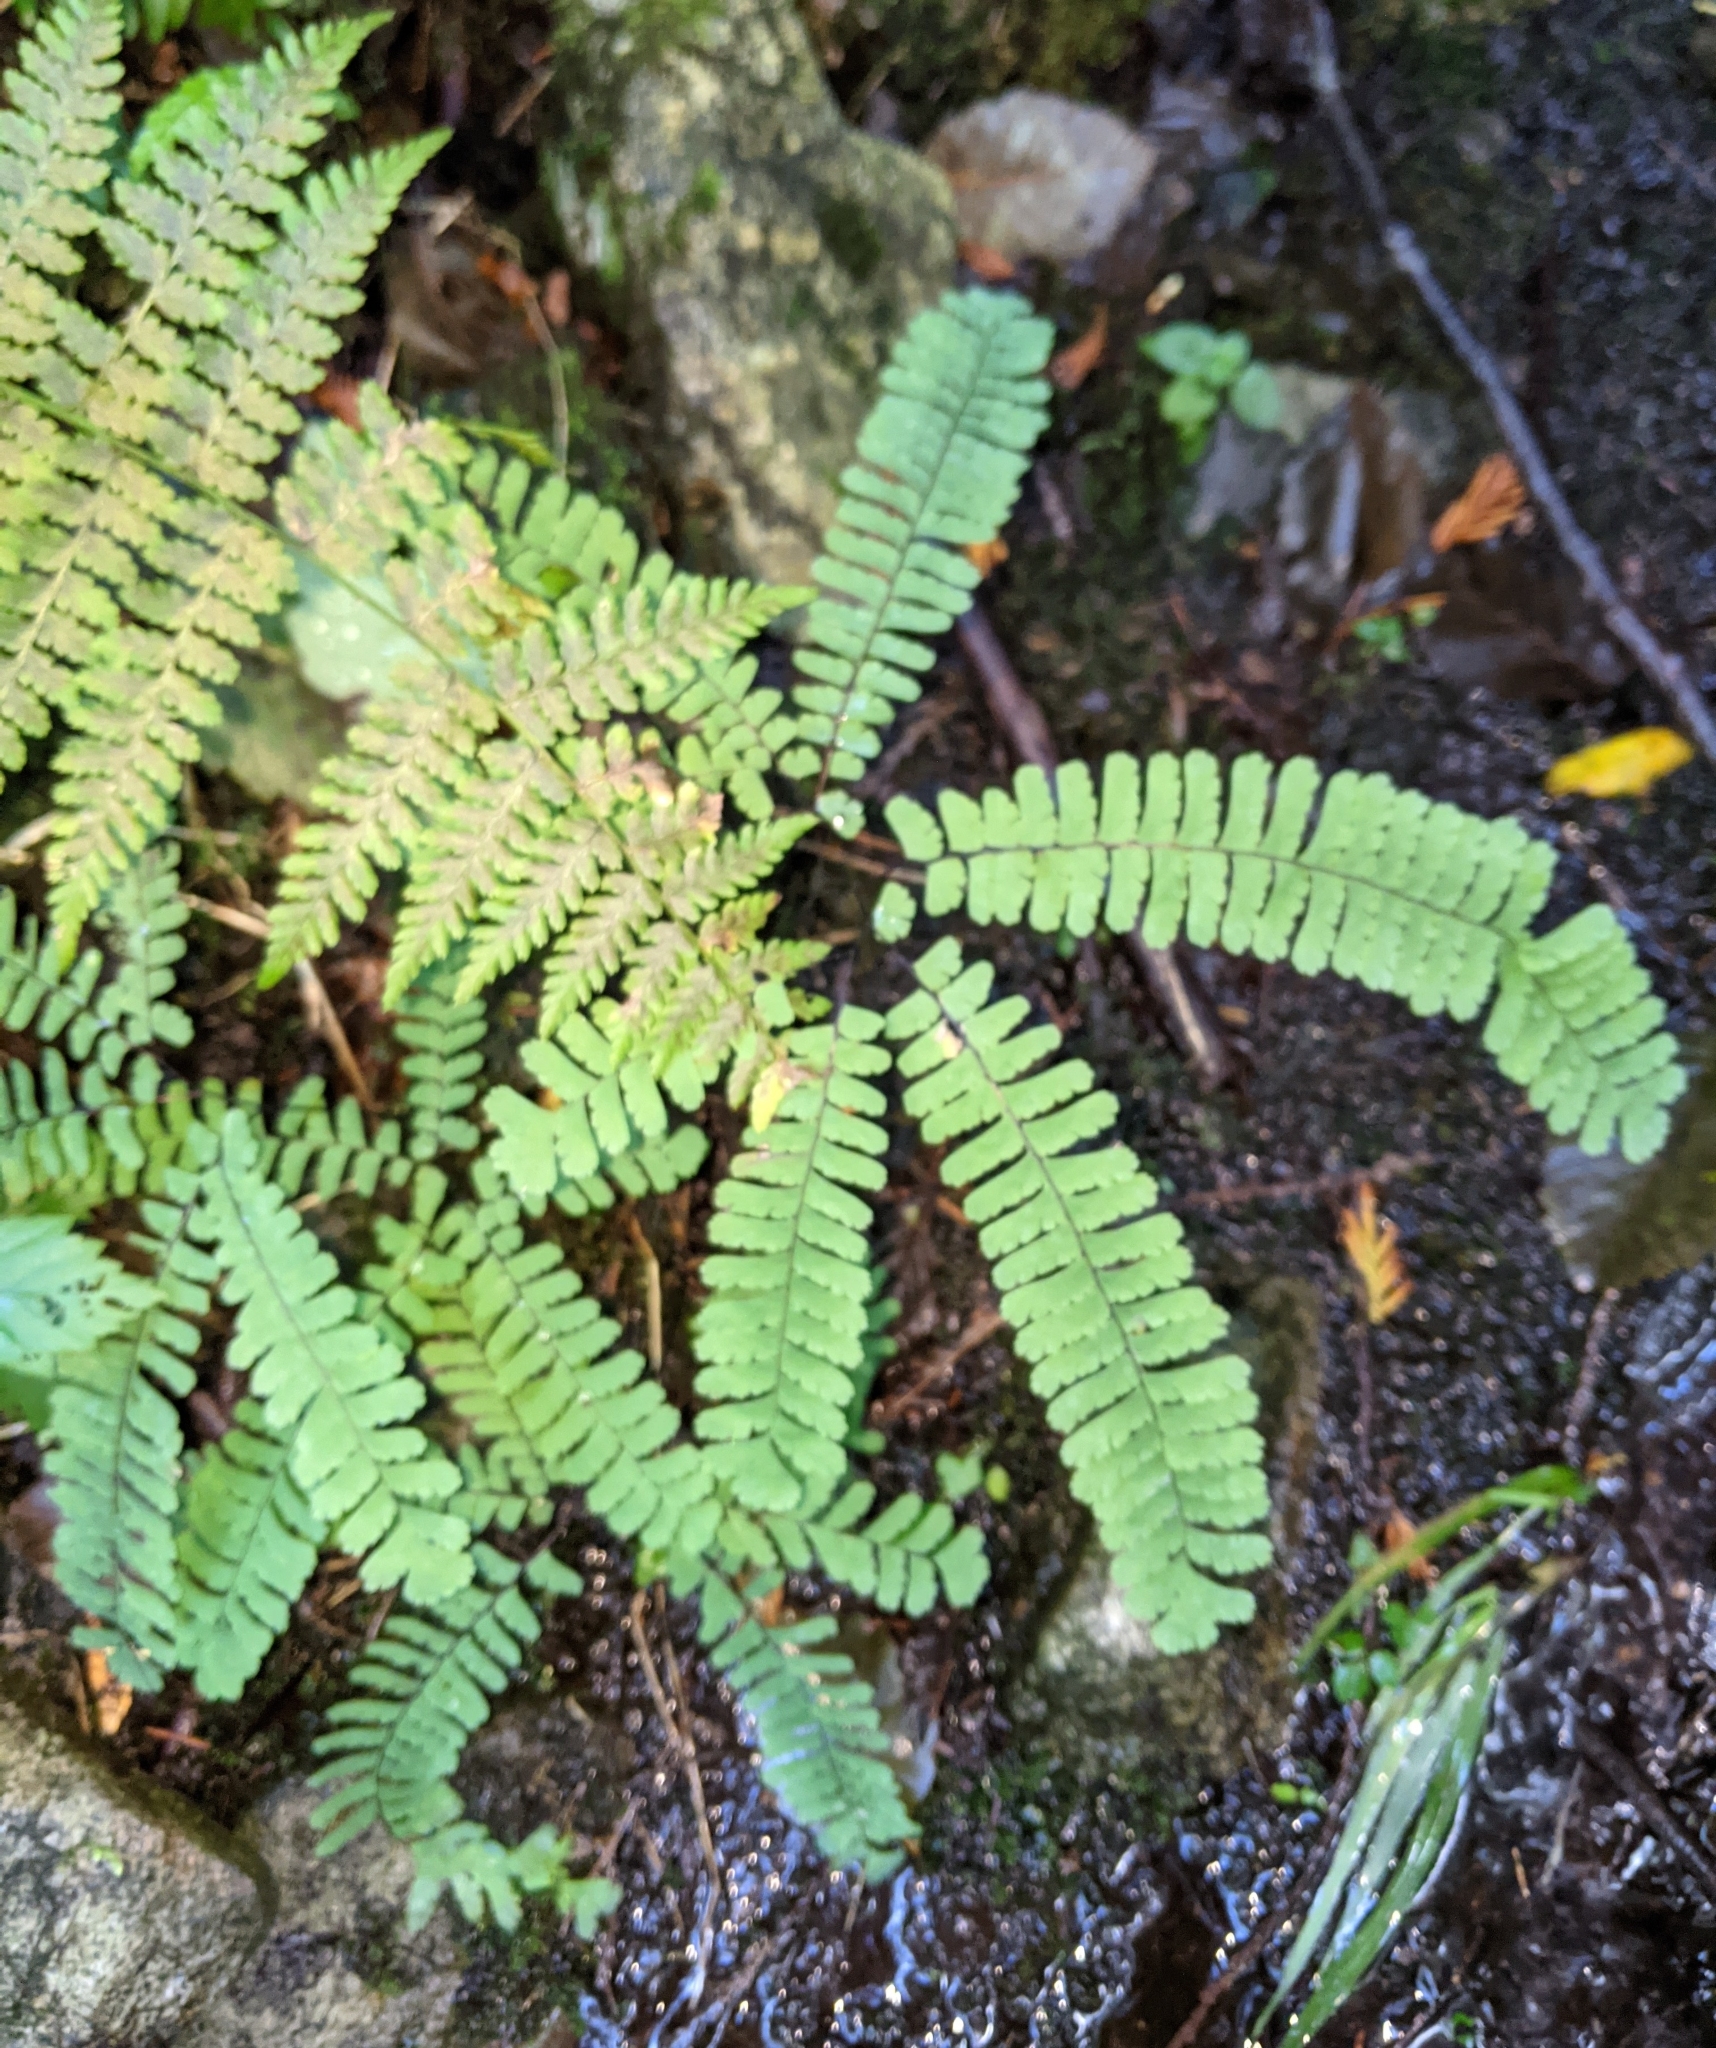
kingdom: Plantae
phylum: Tracheophyta
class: Polypodiopsida
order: Polypodiales
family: Pteridaceae
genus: Adiantum
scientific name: Adiantum aleuticum
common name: Aleutian maidenhair fern
